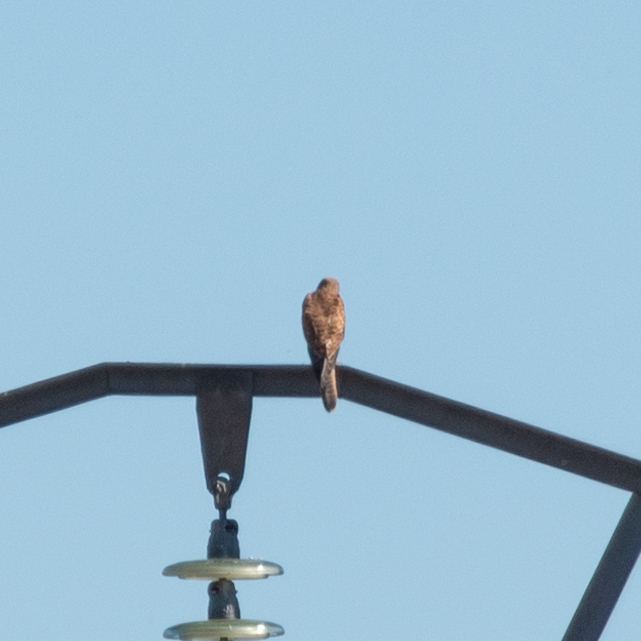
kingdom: Animalia
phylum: Chordata
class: Aves
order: Falconiformes
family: Falconidae
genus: Falco
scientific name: Falco tinnunculus
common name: Common kestrel
